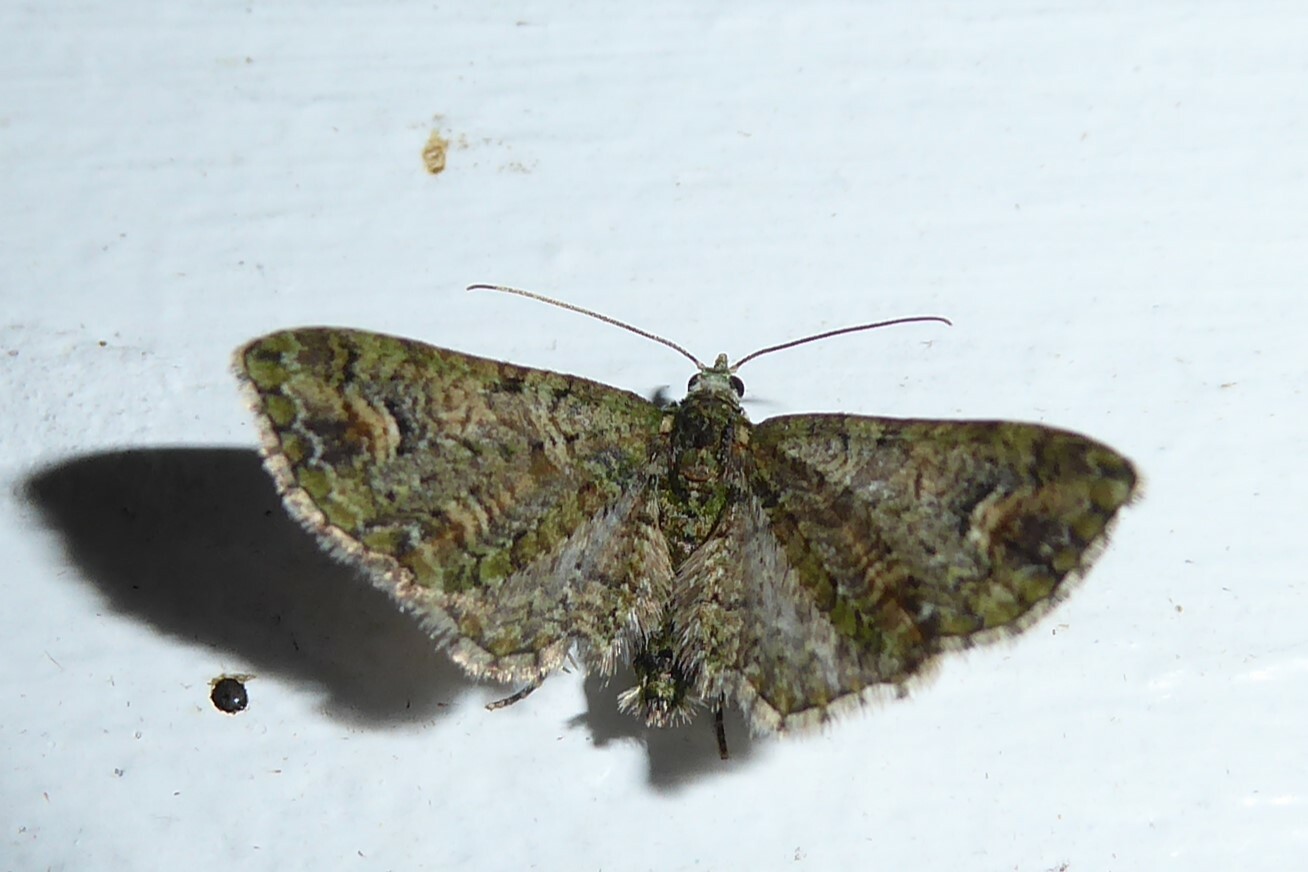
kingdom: Animalia
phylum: Arthropoda
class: Insecta
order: Lepidoptera
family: Geometridae
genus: Idaea
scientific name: Idaea mutanda
